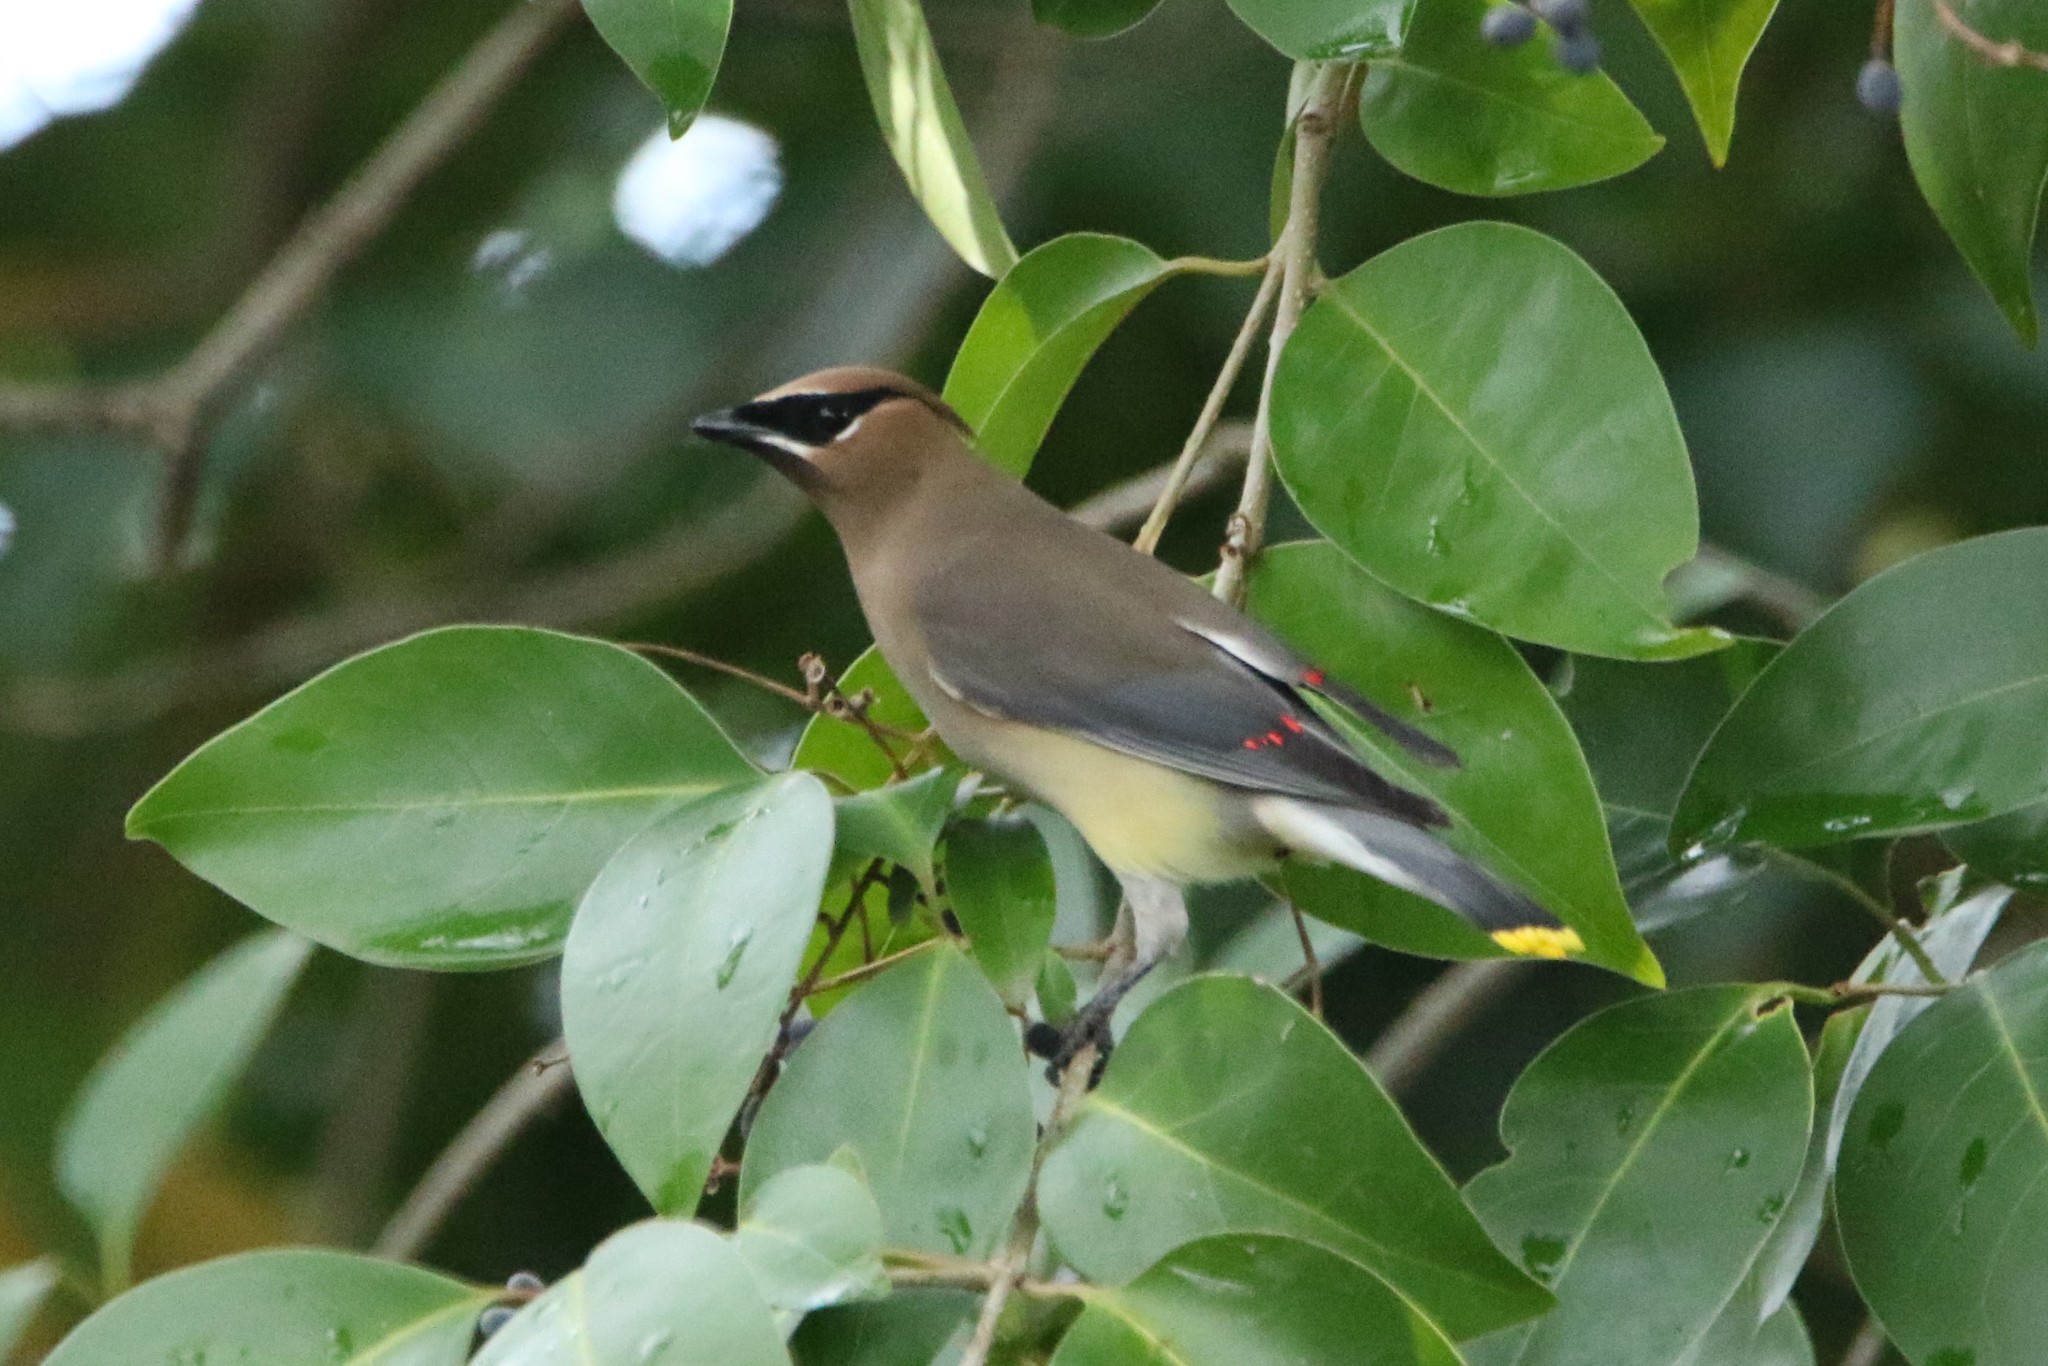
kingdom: Animalia
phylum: Chordata
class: Aves
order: Passeriformes
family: Bombycillidae
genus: Bombycilla
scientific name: Bombycilla cedrorum
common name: Cedar waxwing
